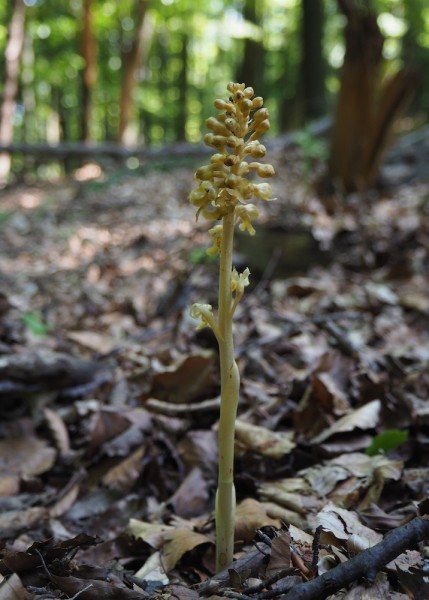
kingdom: Plantae
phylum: Tracheophyta
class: Liliopsida
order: Asparagales
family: Orchidaceae
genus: Neottia
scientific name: Neottia nidus-avis
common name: Bird's-nest orchid
